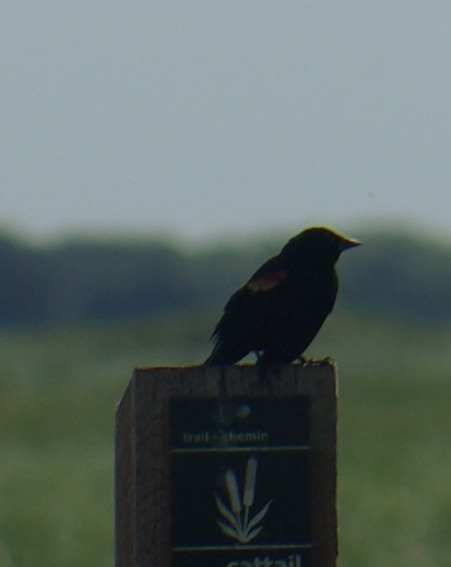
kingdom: Animalia
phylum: Chordata
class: Aves
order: Passeriformes
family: Icteridae
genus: Agelaius
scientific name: Agelaius phoeniceus
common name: Red-winged blackbird
